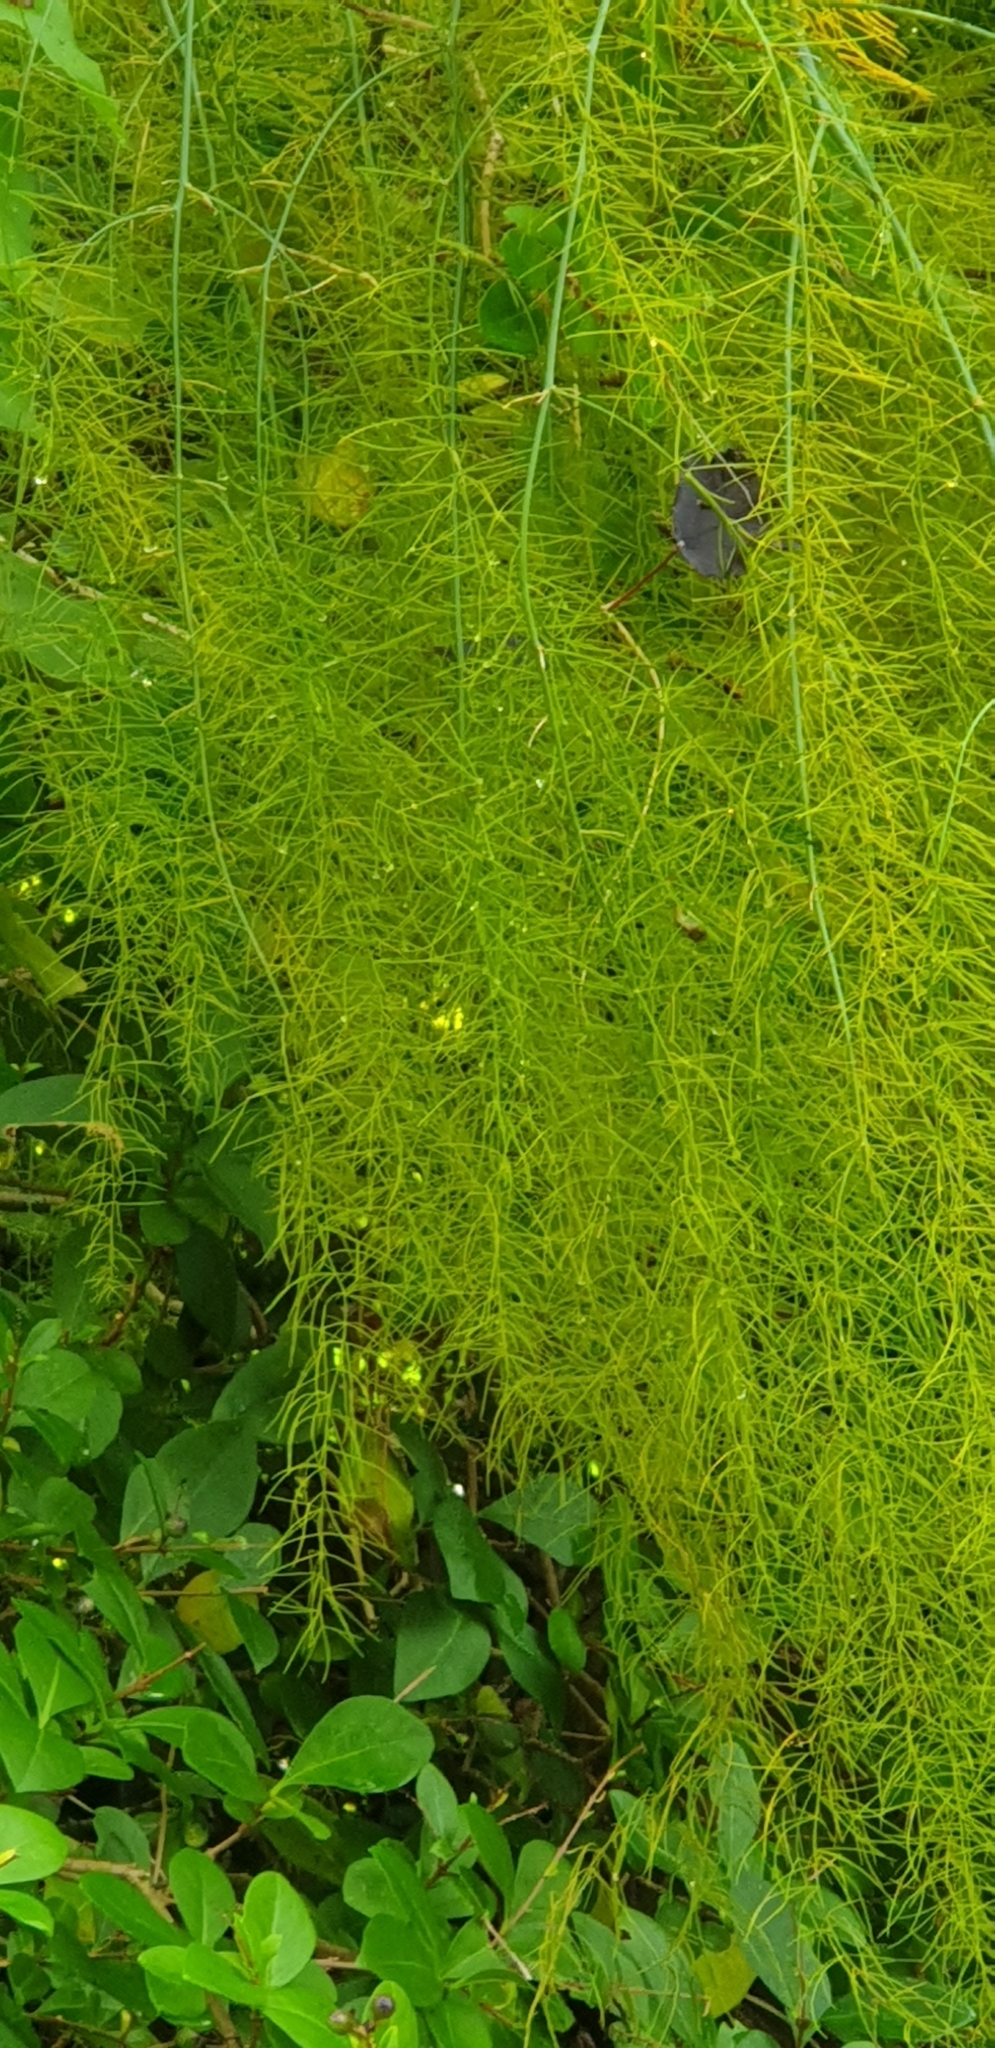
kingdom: Plantae
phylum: Tracheophyta
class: Liliopsida
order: Asparagales
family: Asparagaceae
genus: Asparagus
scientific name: Asparagus officinalis
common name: Garden asparagus
